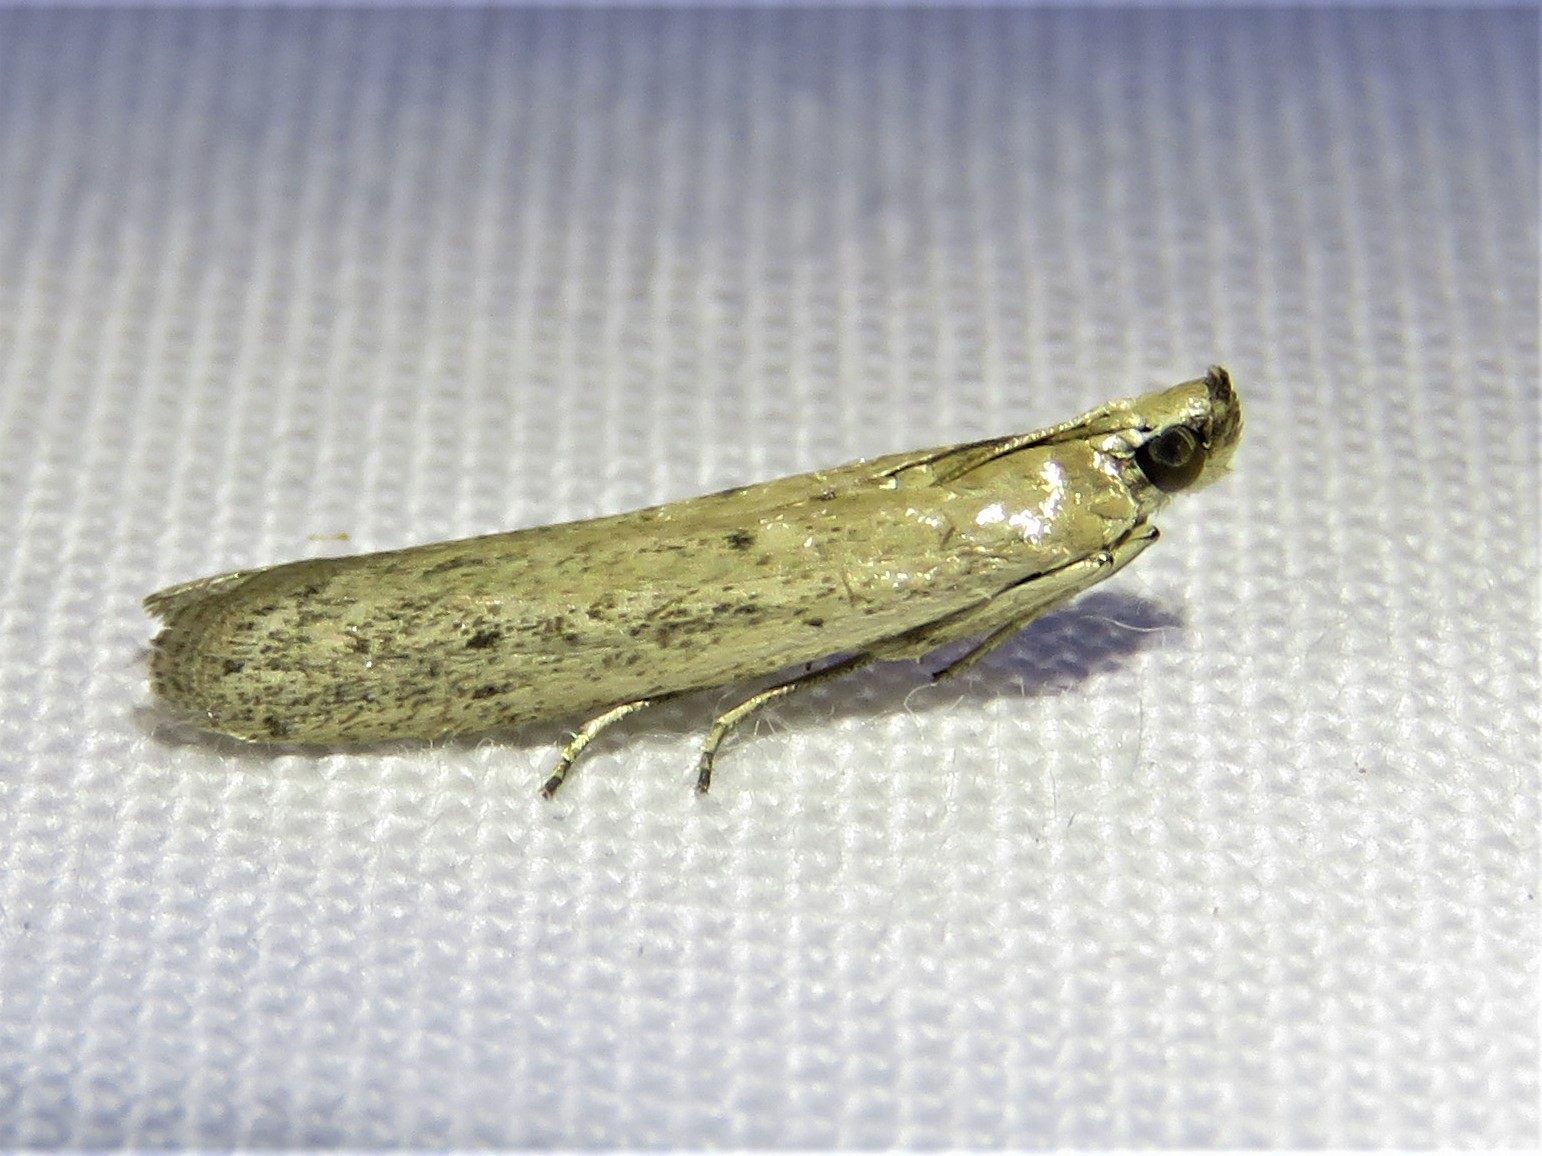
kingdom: Animalia
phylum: Arthropoda
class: Insecta
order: Lepidoptera
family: Pyralidae
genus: Homoeosoma
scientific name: Homoeosoma electella
